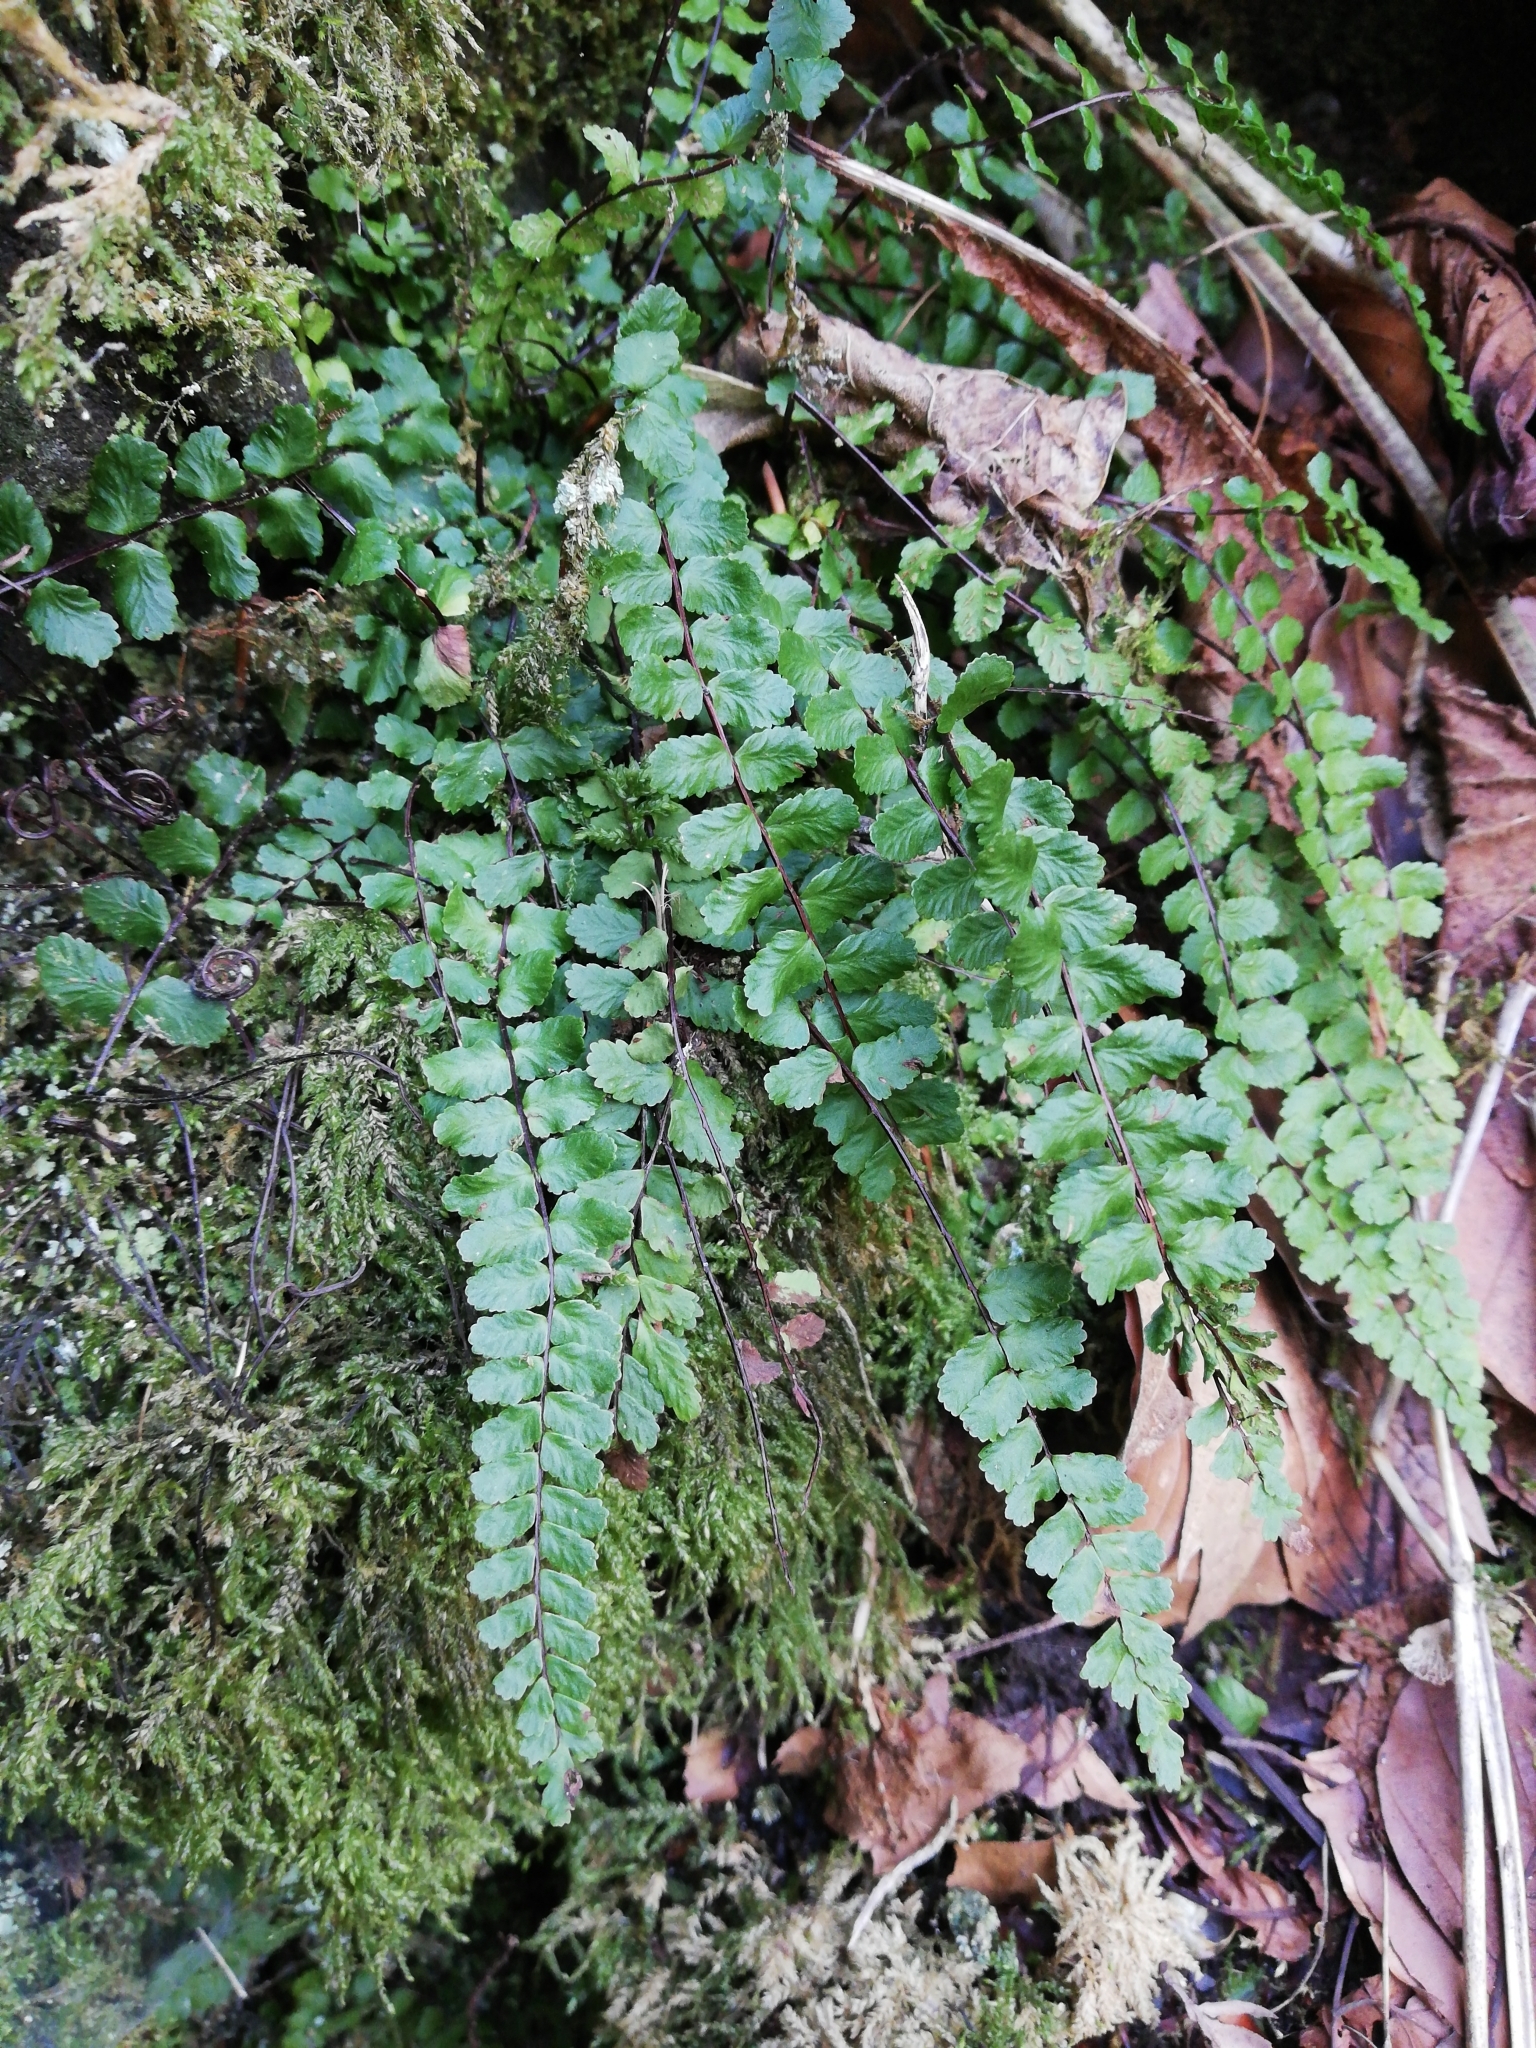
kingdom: Plantae
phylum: Tracheophyta
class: Polypodiopsida
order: Polypodiales
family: Aspleniaceae
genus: Asplenium
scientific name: Asplenium trichomanes
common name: Maidenhair spleenwort
